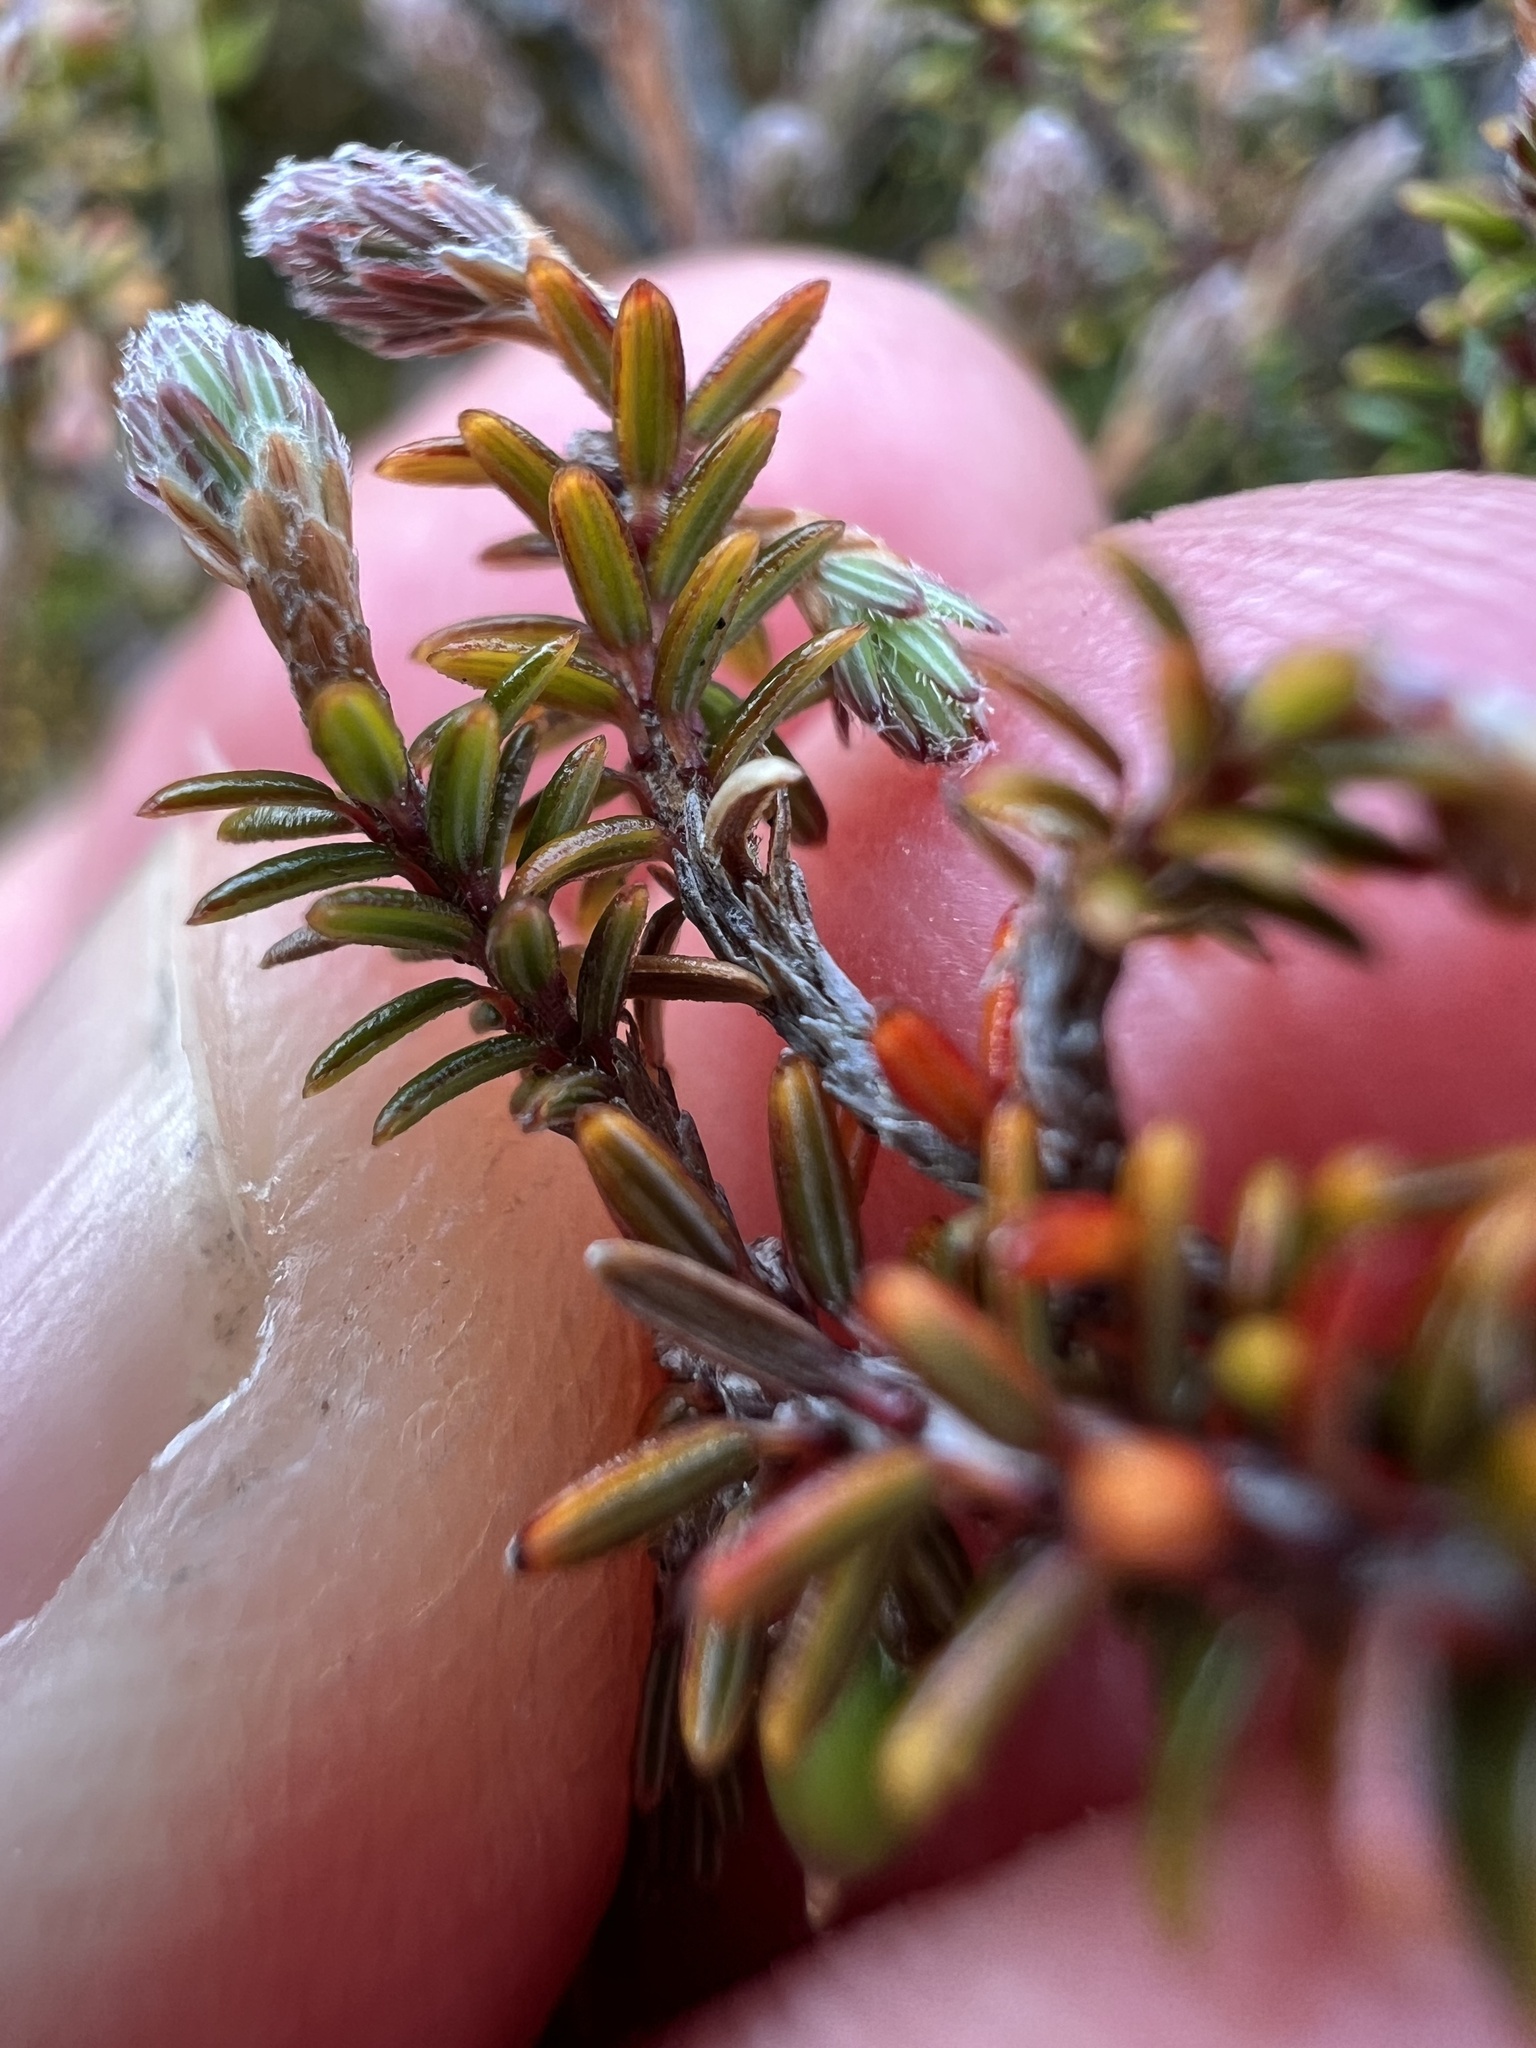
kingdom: Plantae
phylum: Tracheophyta
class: Magnoliopsida
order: Ericales
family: Ericaceae
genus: Androstoma
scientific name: Androstoma empetrifolia
